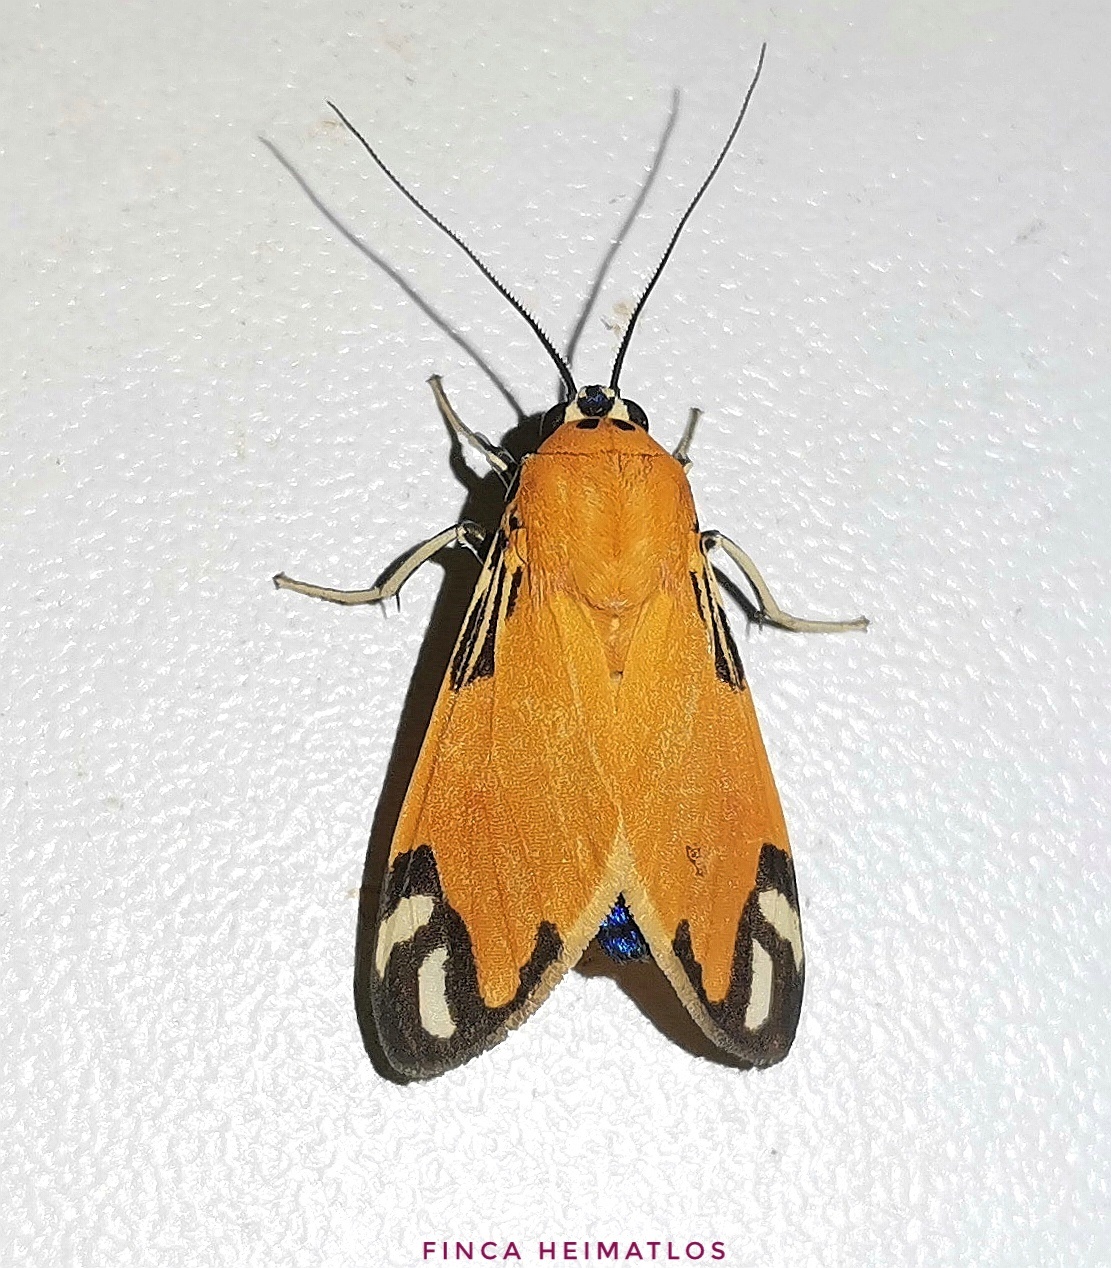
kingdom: Animalia
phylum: Arthropoda
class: Insecta
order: Lepidoptera
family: Erebidae
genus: Ormetica
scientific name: Ormetica zenzeroides
